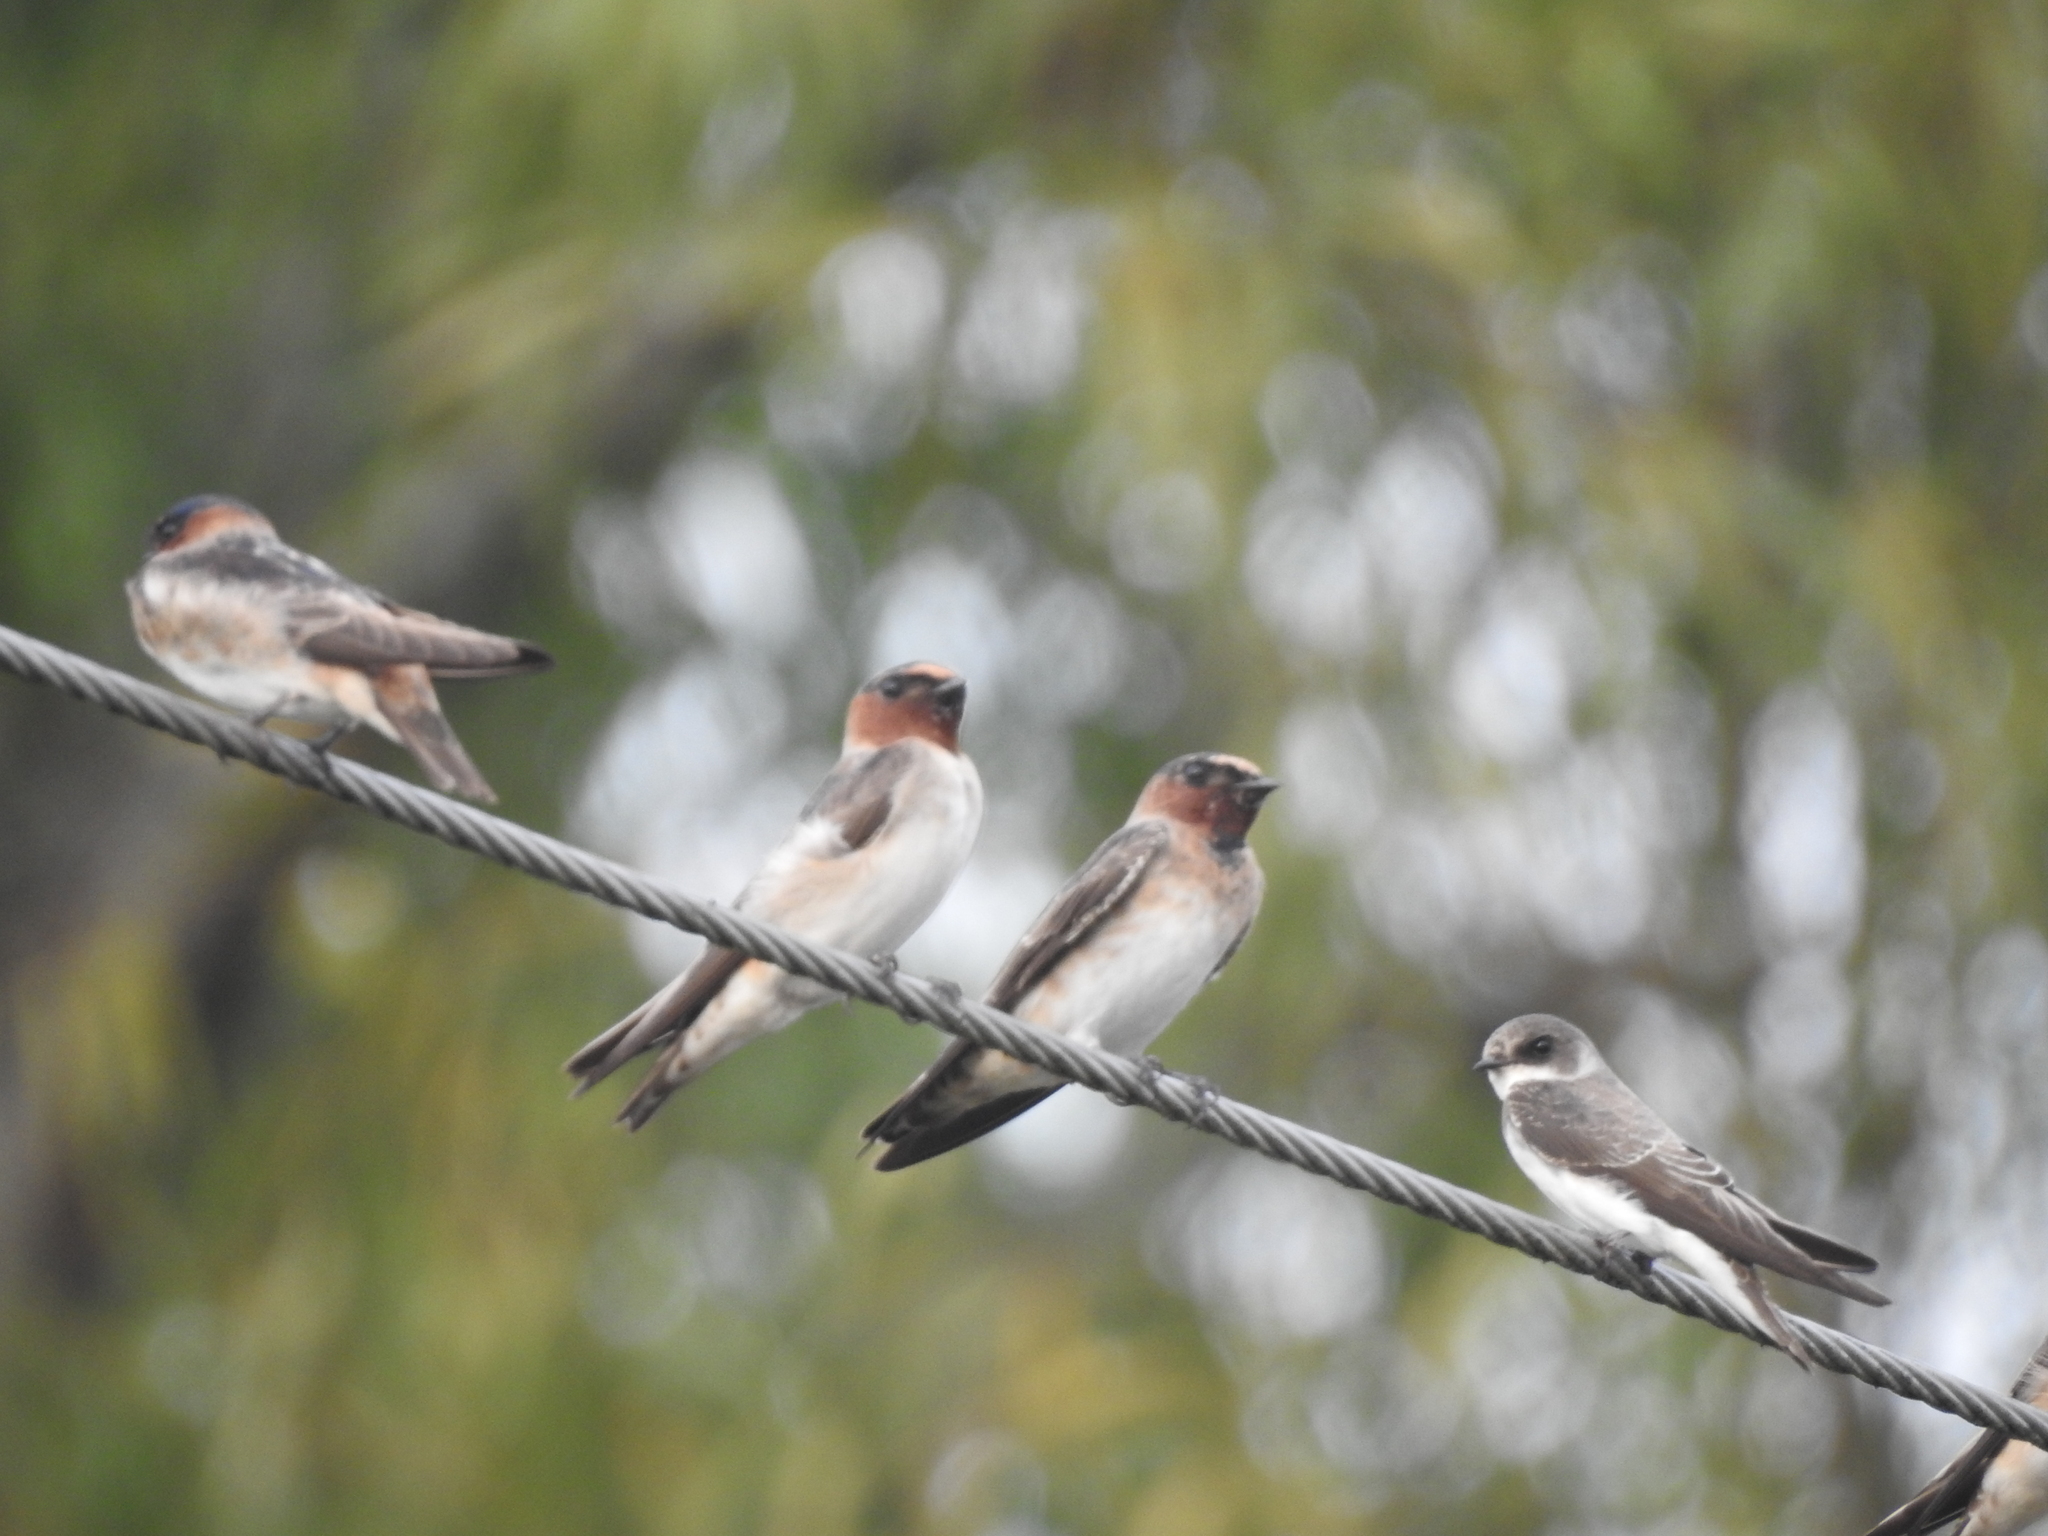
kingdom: Animalia
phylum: Chordata
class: Aves
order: Passeriformes
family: Hirundinidae
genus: Petrochelidon
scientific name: Petrochelidon pyrrhonota
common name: American cliff swallow
